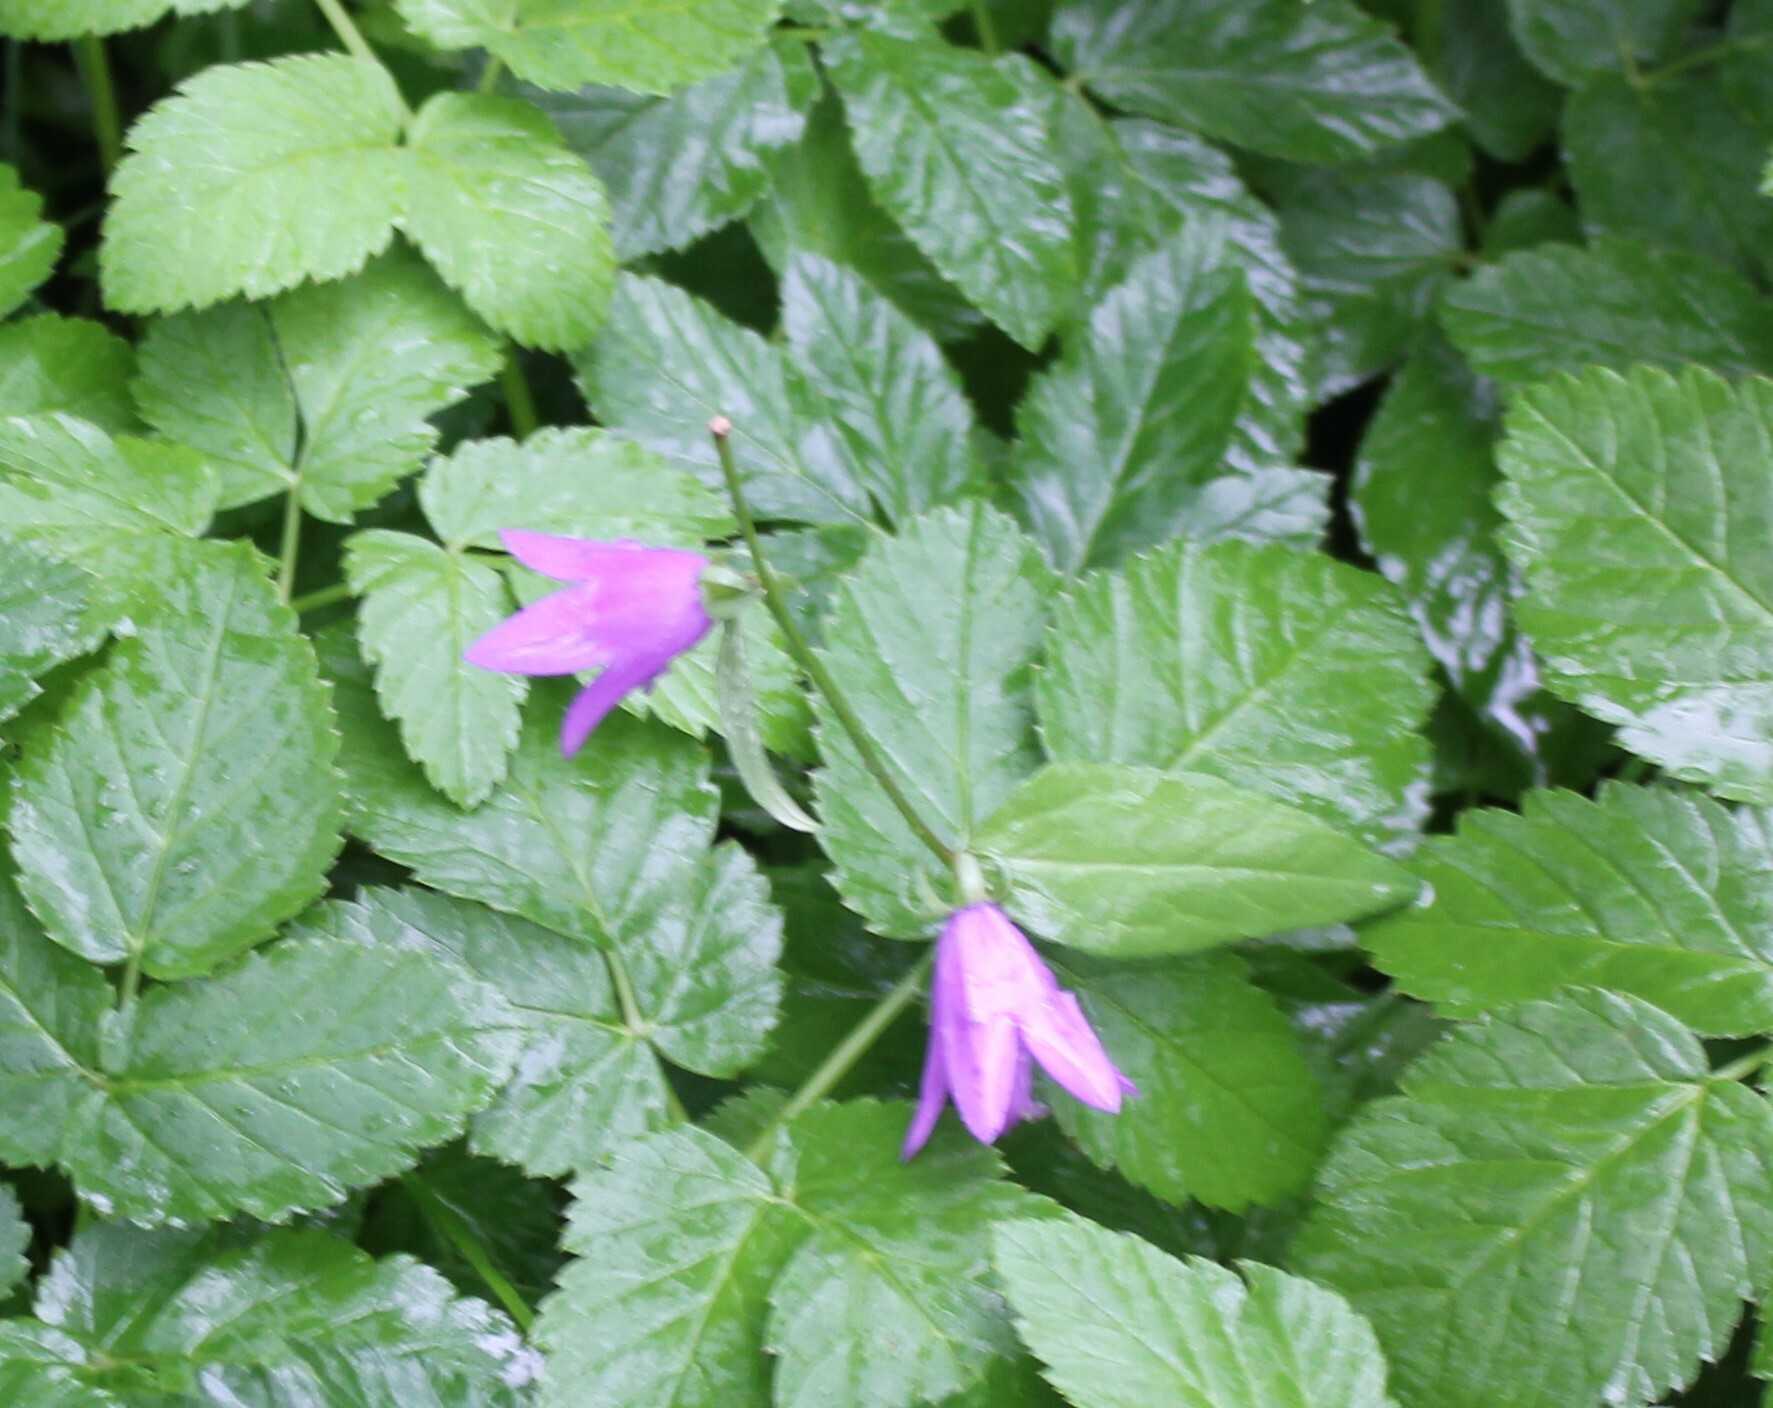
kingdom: Plantae
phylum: Tracheophyta
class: Magnoliopsida
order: Asterales
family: Campanulaceae
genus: Campanula
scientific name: Campanula rapunculoides
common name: Creeping bellflower
